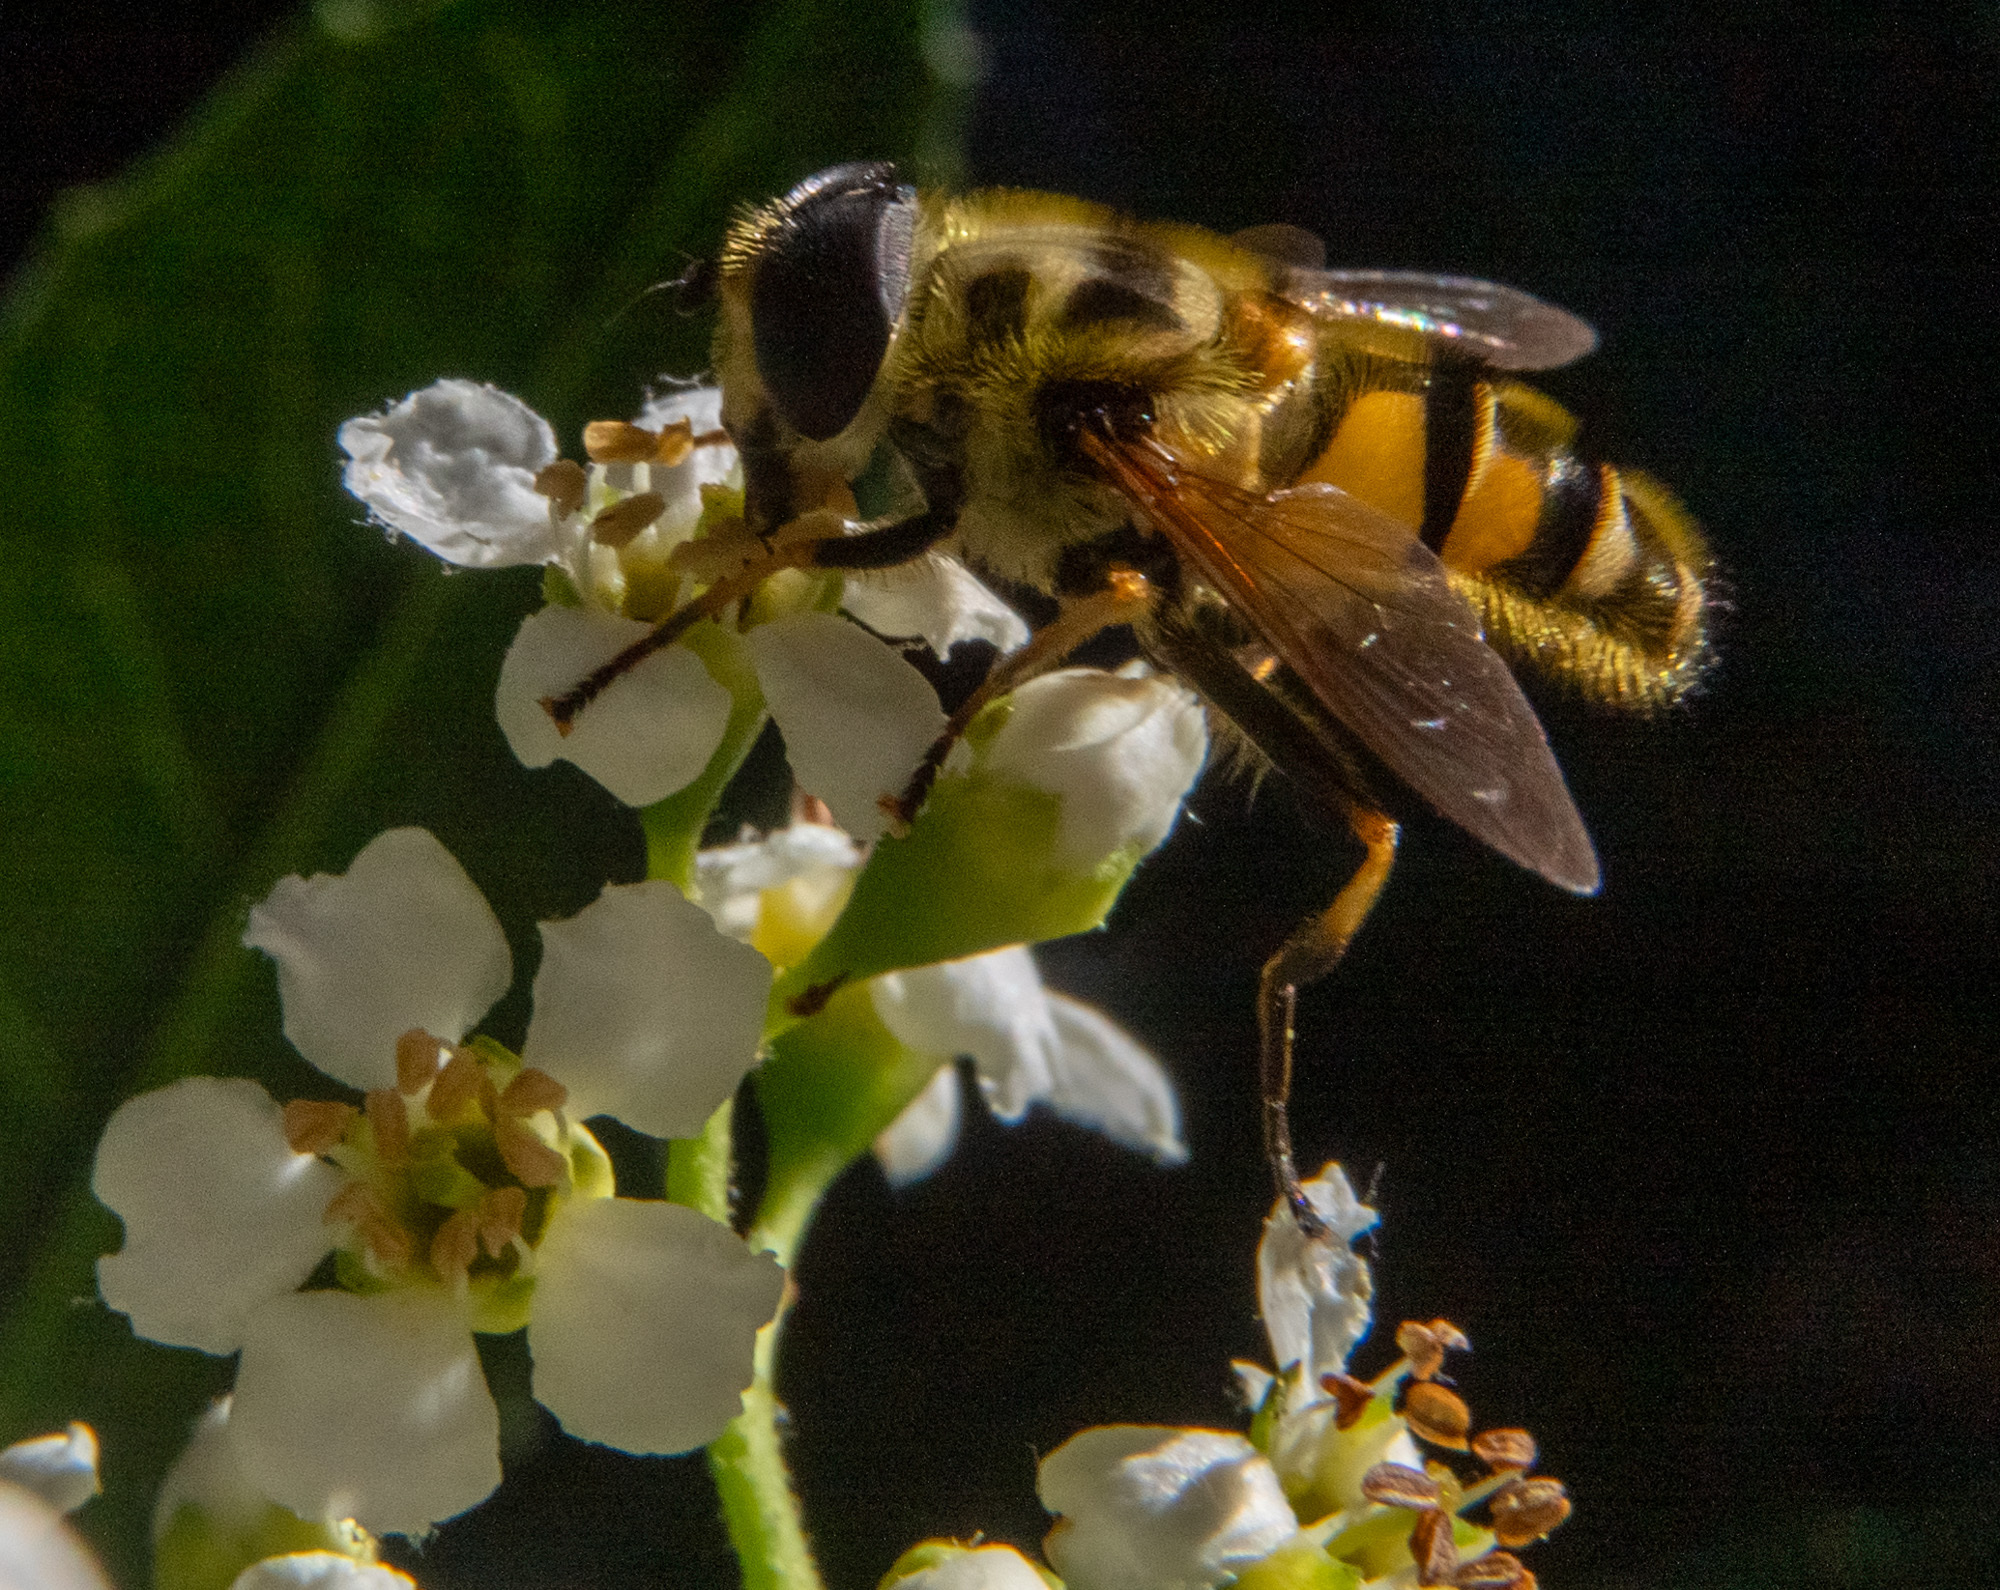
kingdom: Animalia
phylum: Arthropoda
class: Insecta
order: Diptera
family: Syrphidae
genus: Myathropa
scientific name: Myathropa florea
